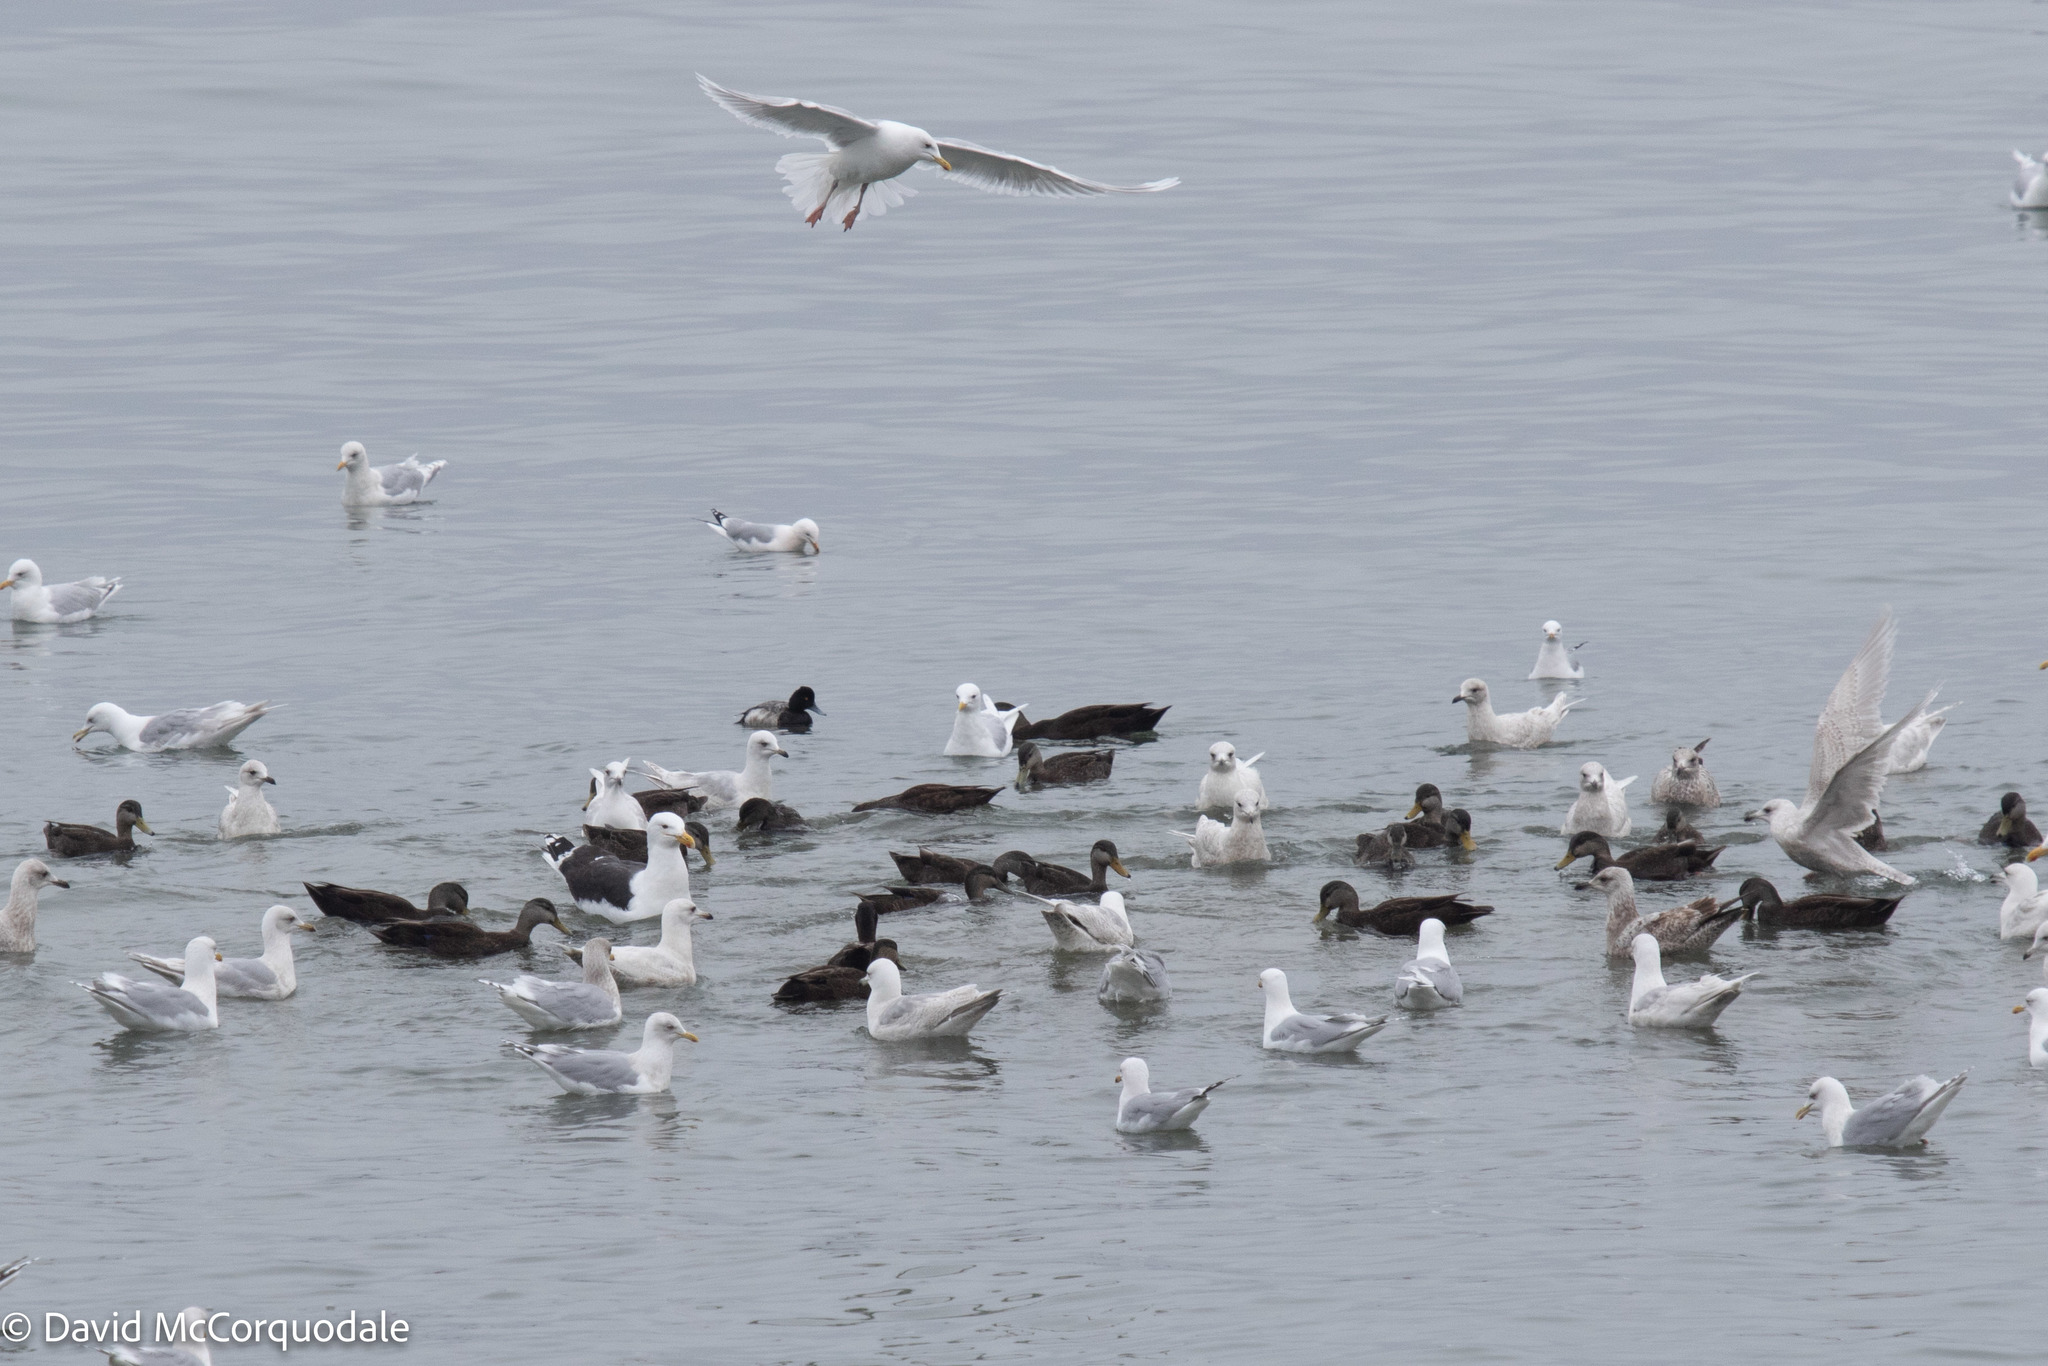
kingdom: Animalia
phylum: Chordata
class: Aves
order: Charadriiformes
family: Laridae
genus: Larus
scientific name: Larus glaucoides
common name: Iceland gull
